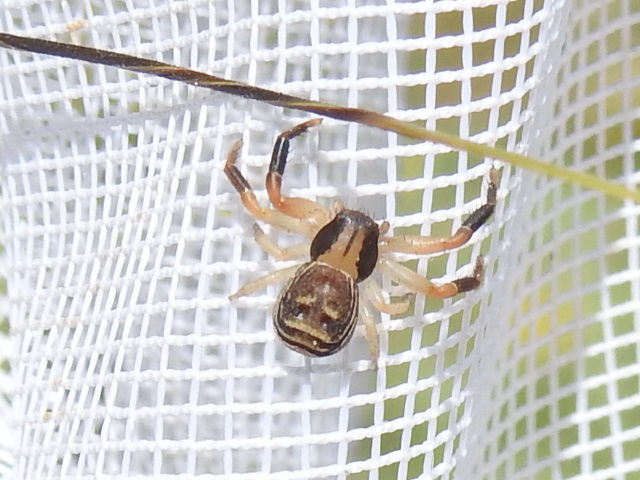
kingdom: Animalia
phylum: Arthropoda
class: Arachnida
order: Araneae
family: Thomisidae
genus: Xysticus
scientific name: Xysticus texanus
